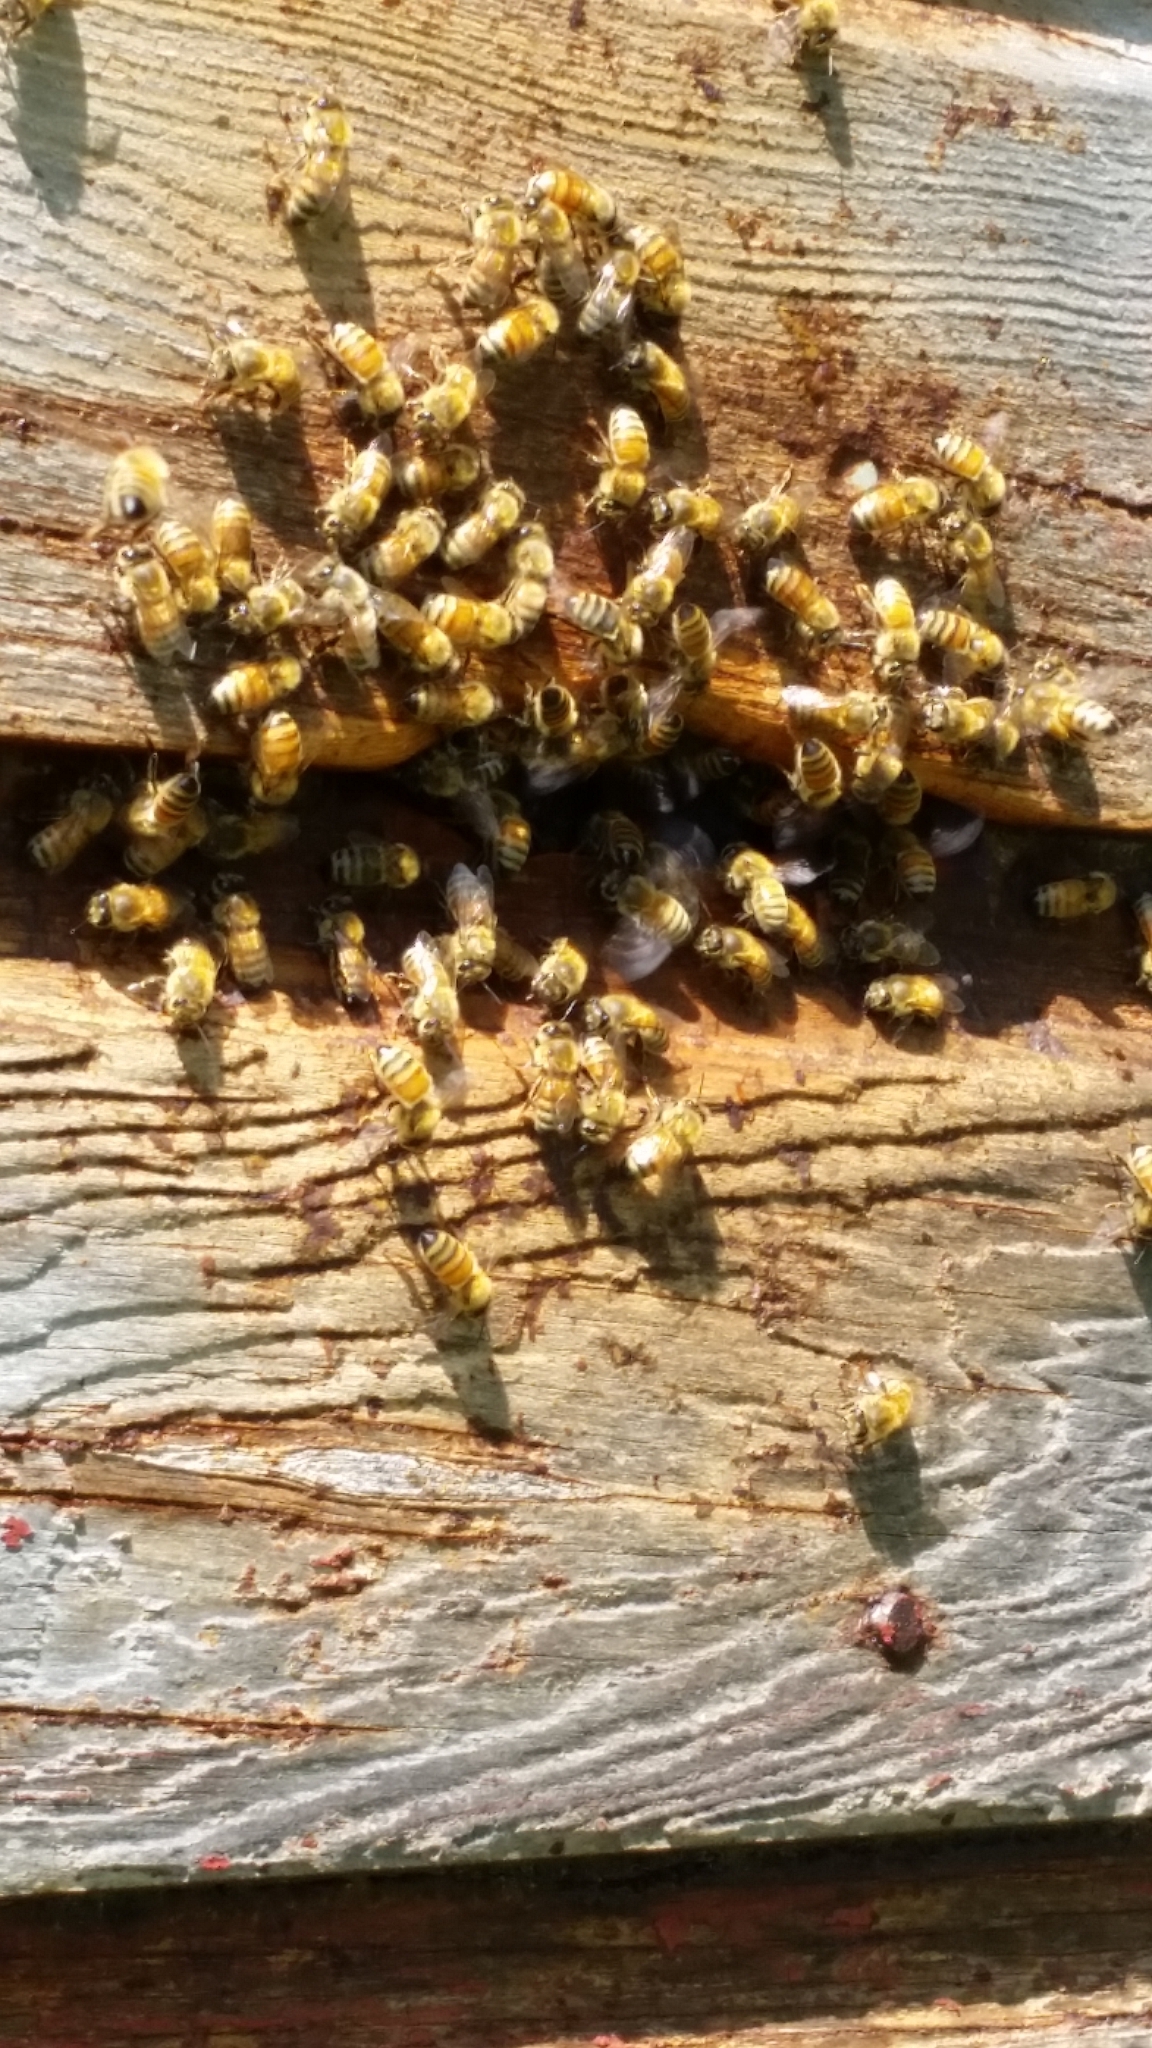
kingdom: Animalia
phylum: Arthropoda
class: Insecta
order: Hymenoptera
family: Apidae
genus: Apis
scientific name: Apis mellifera
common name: Honey bee
